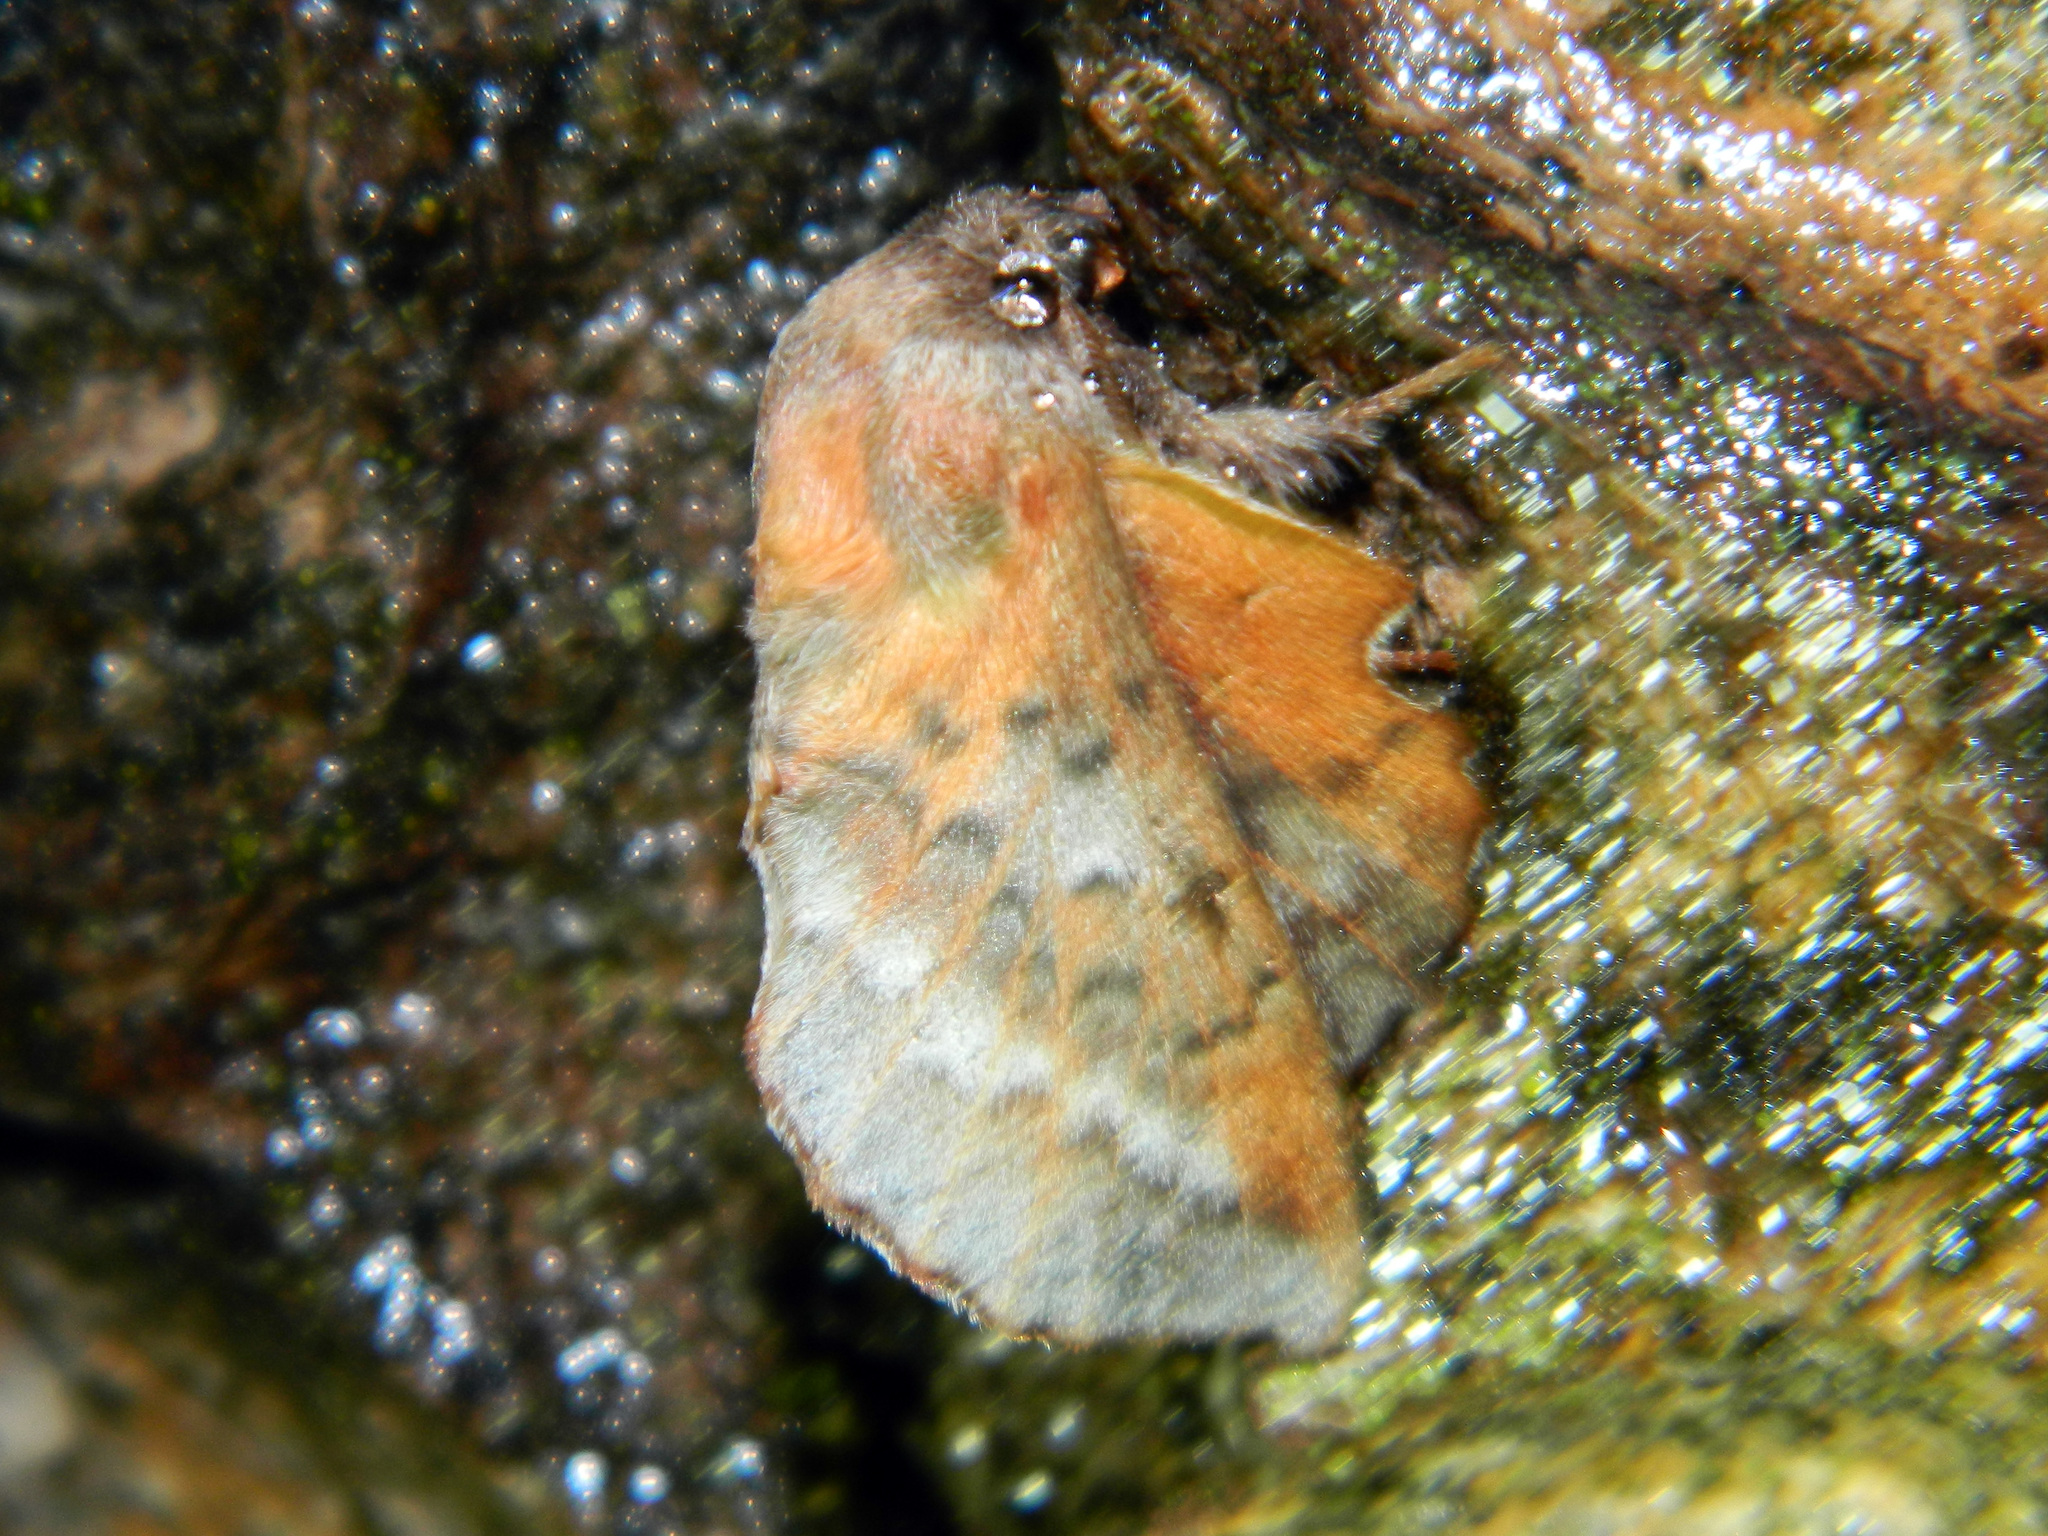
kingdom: Animalia
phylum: Arthropoda
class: Insecta
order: Lepidoptera
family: Lasiocampidae
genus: Phyllodesma
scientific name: Phyllodesma americana
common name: American lappet moth
